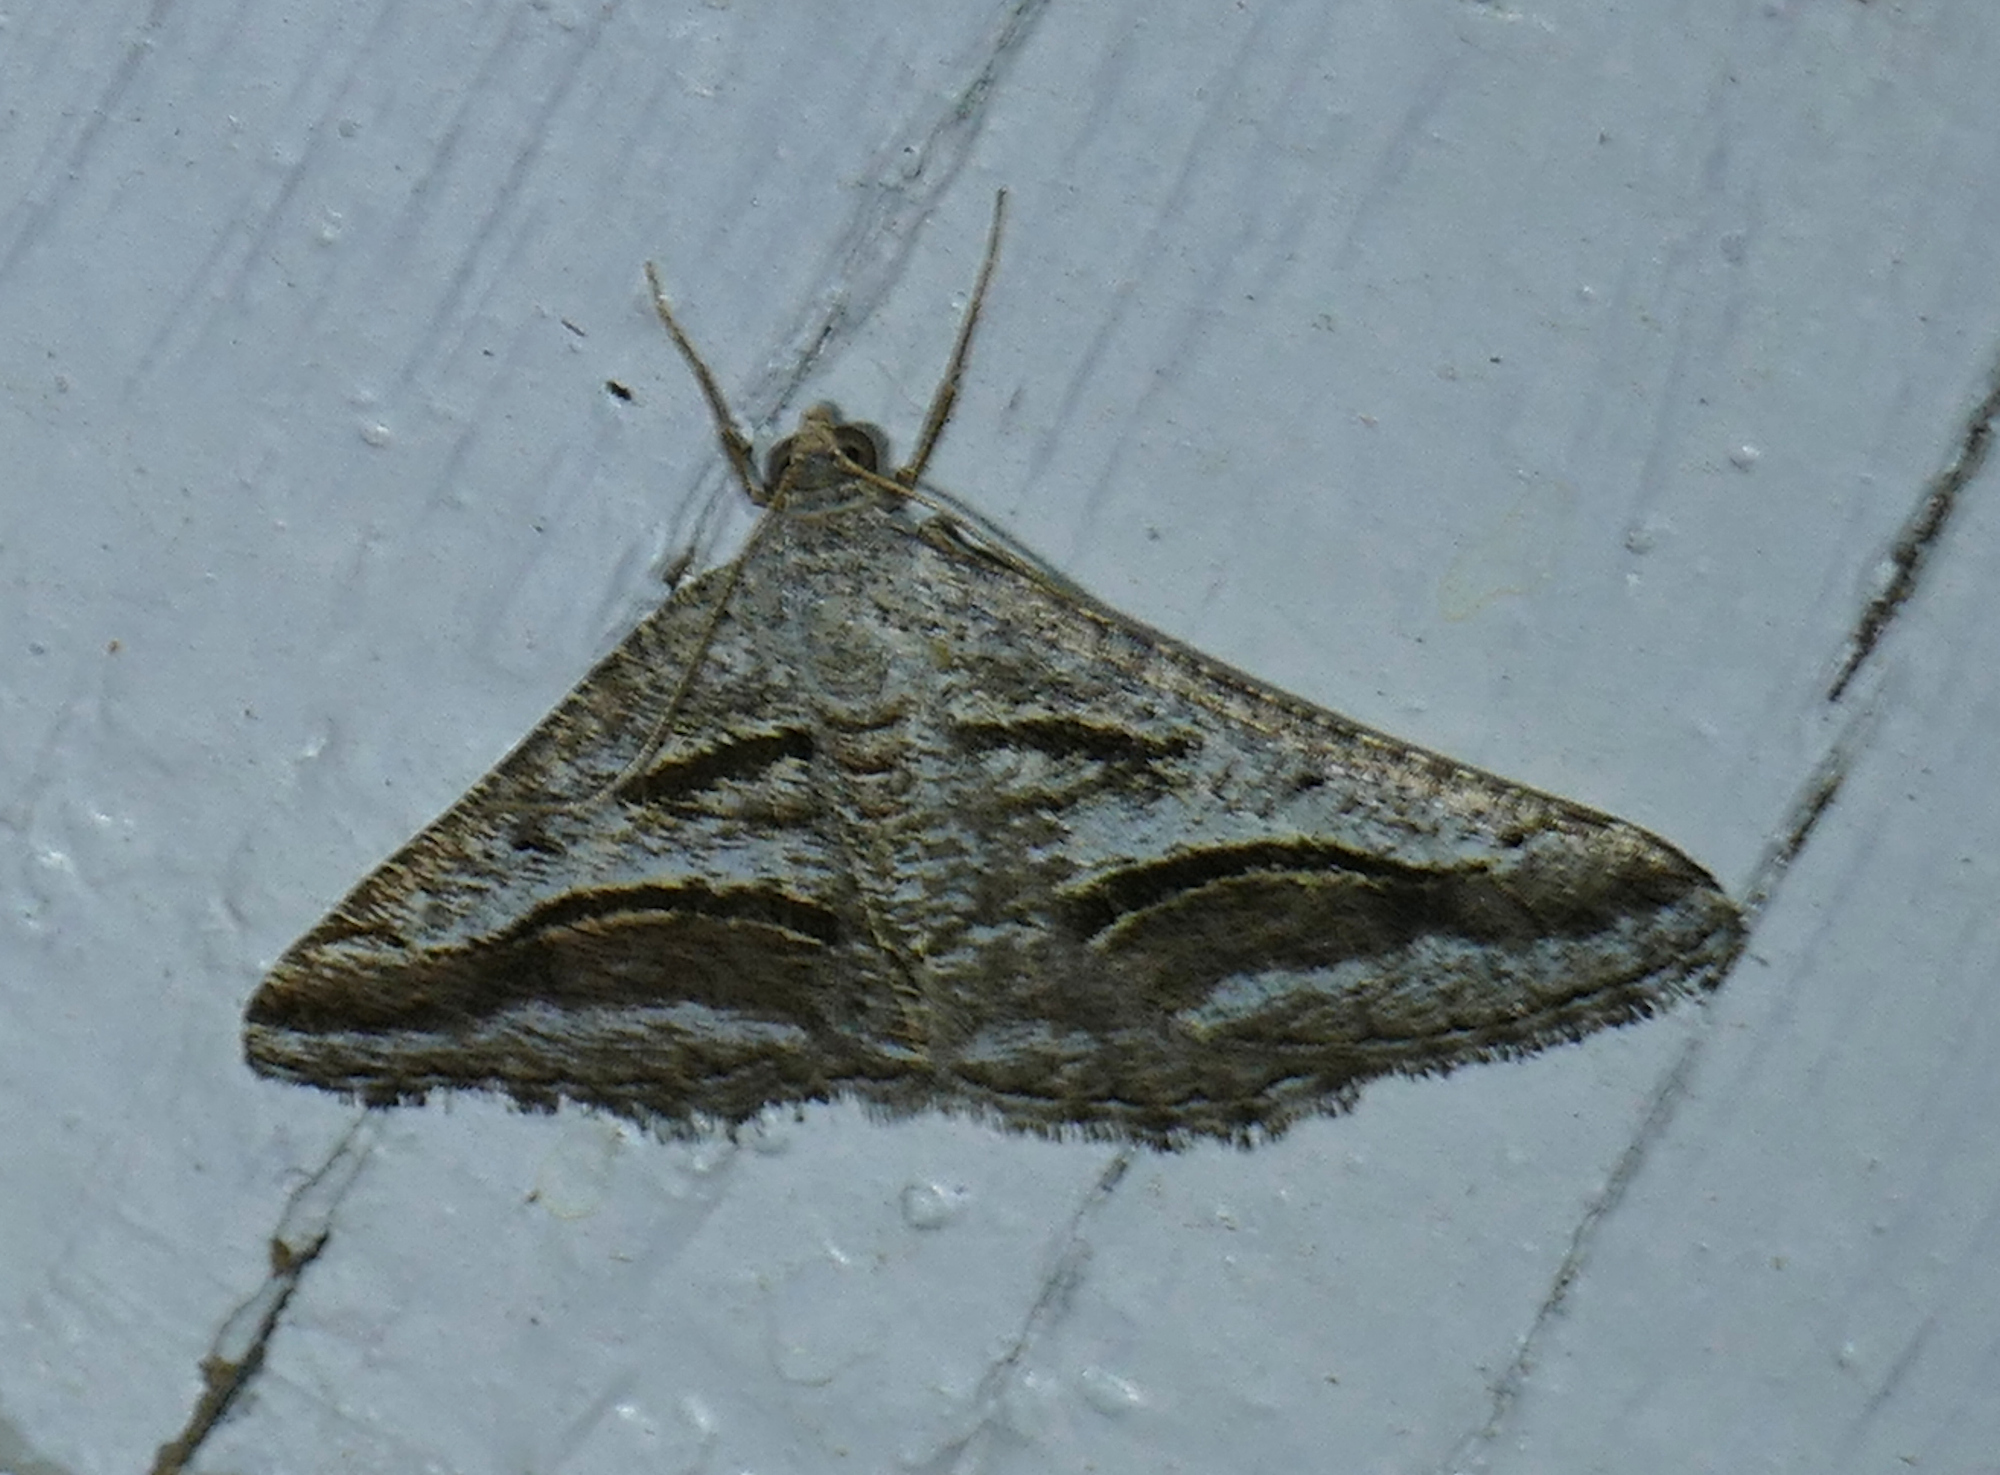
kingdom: Animalia
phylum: Arthropoda
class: Insecta
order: Lepidoptera
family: Geometridae
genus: Digrammia
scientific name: Digrammia curvata
